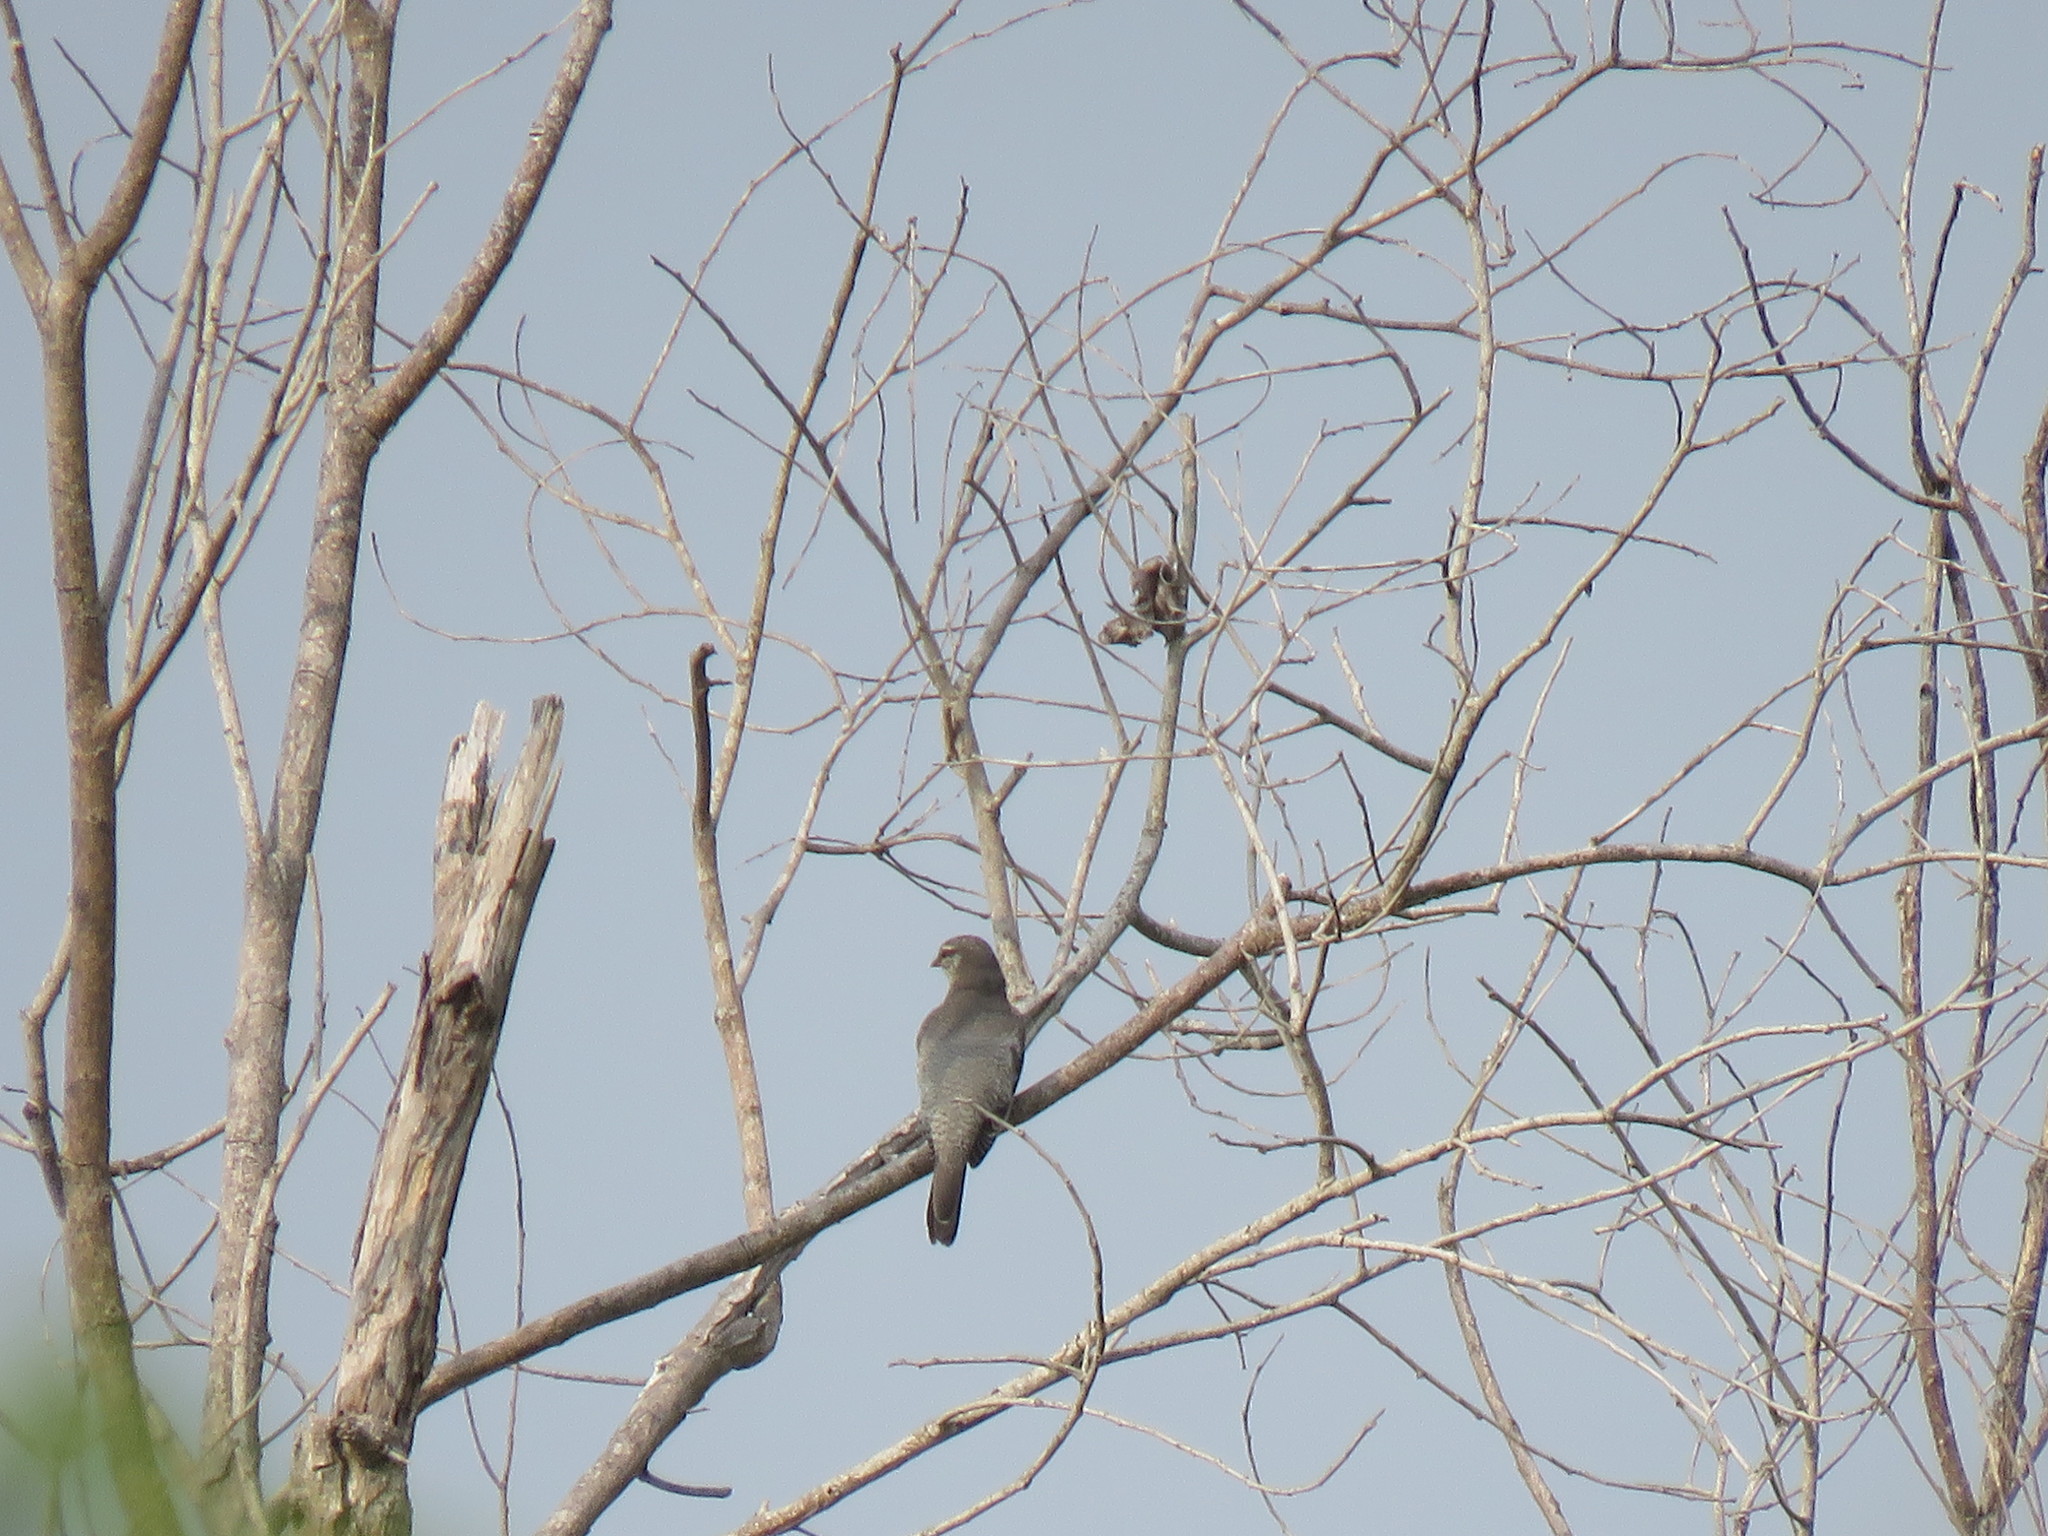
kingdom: Animalia
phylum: Chordata
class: Aves
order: Passeriformes
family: Campephagidae
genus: Coracina
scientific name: Coracina macei
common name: Large cuckooshrike
